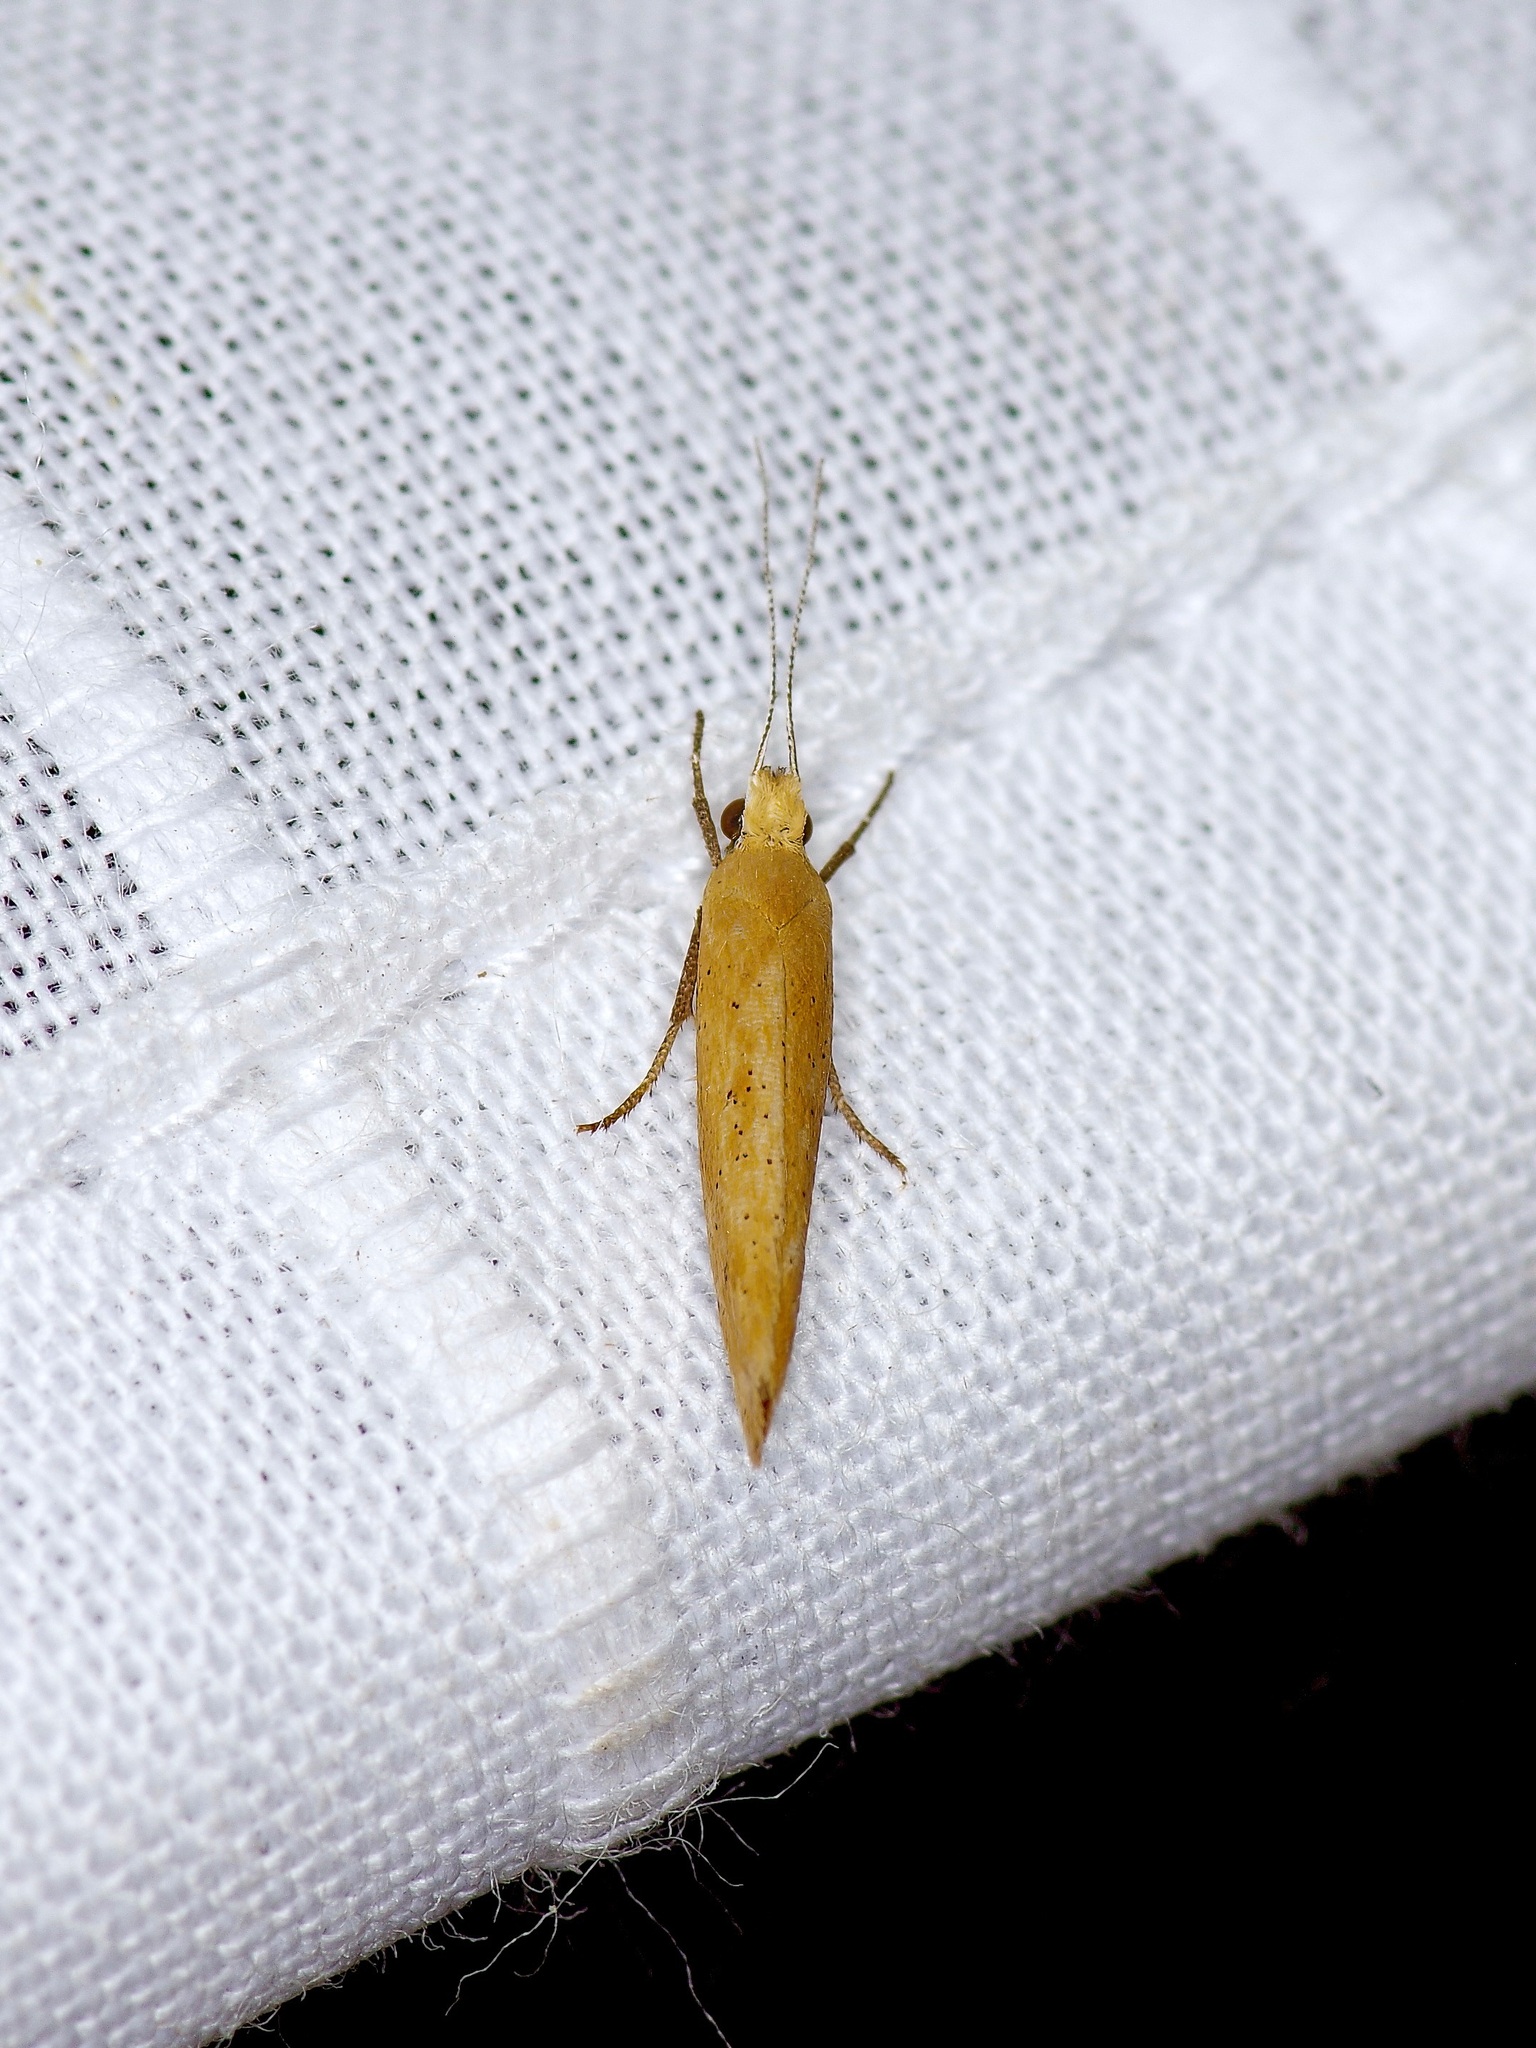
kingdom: Animalia
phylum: Arthropoda
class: Insecta
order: Lepidoptera
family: Ypsolophidae
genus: Ypsolopha
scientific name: Ypsolopha
